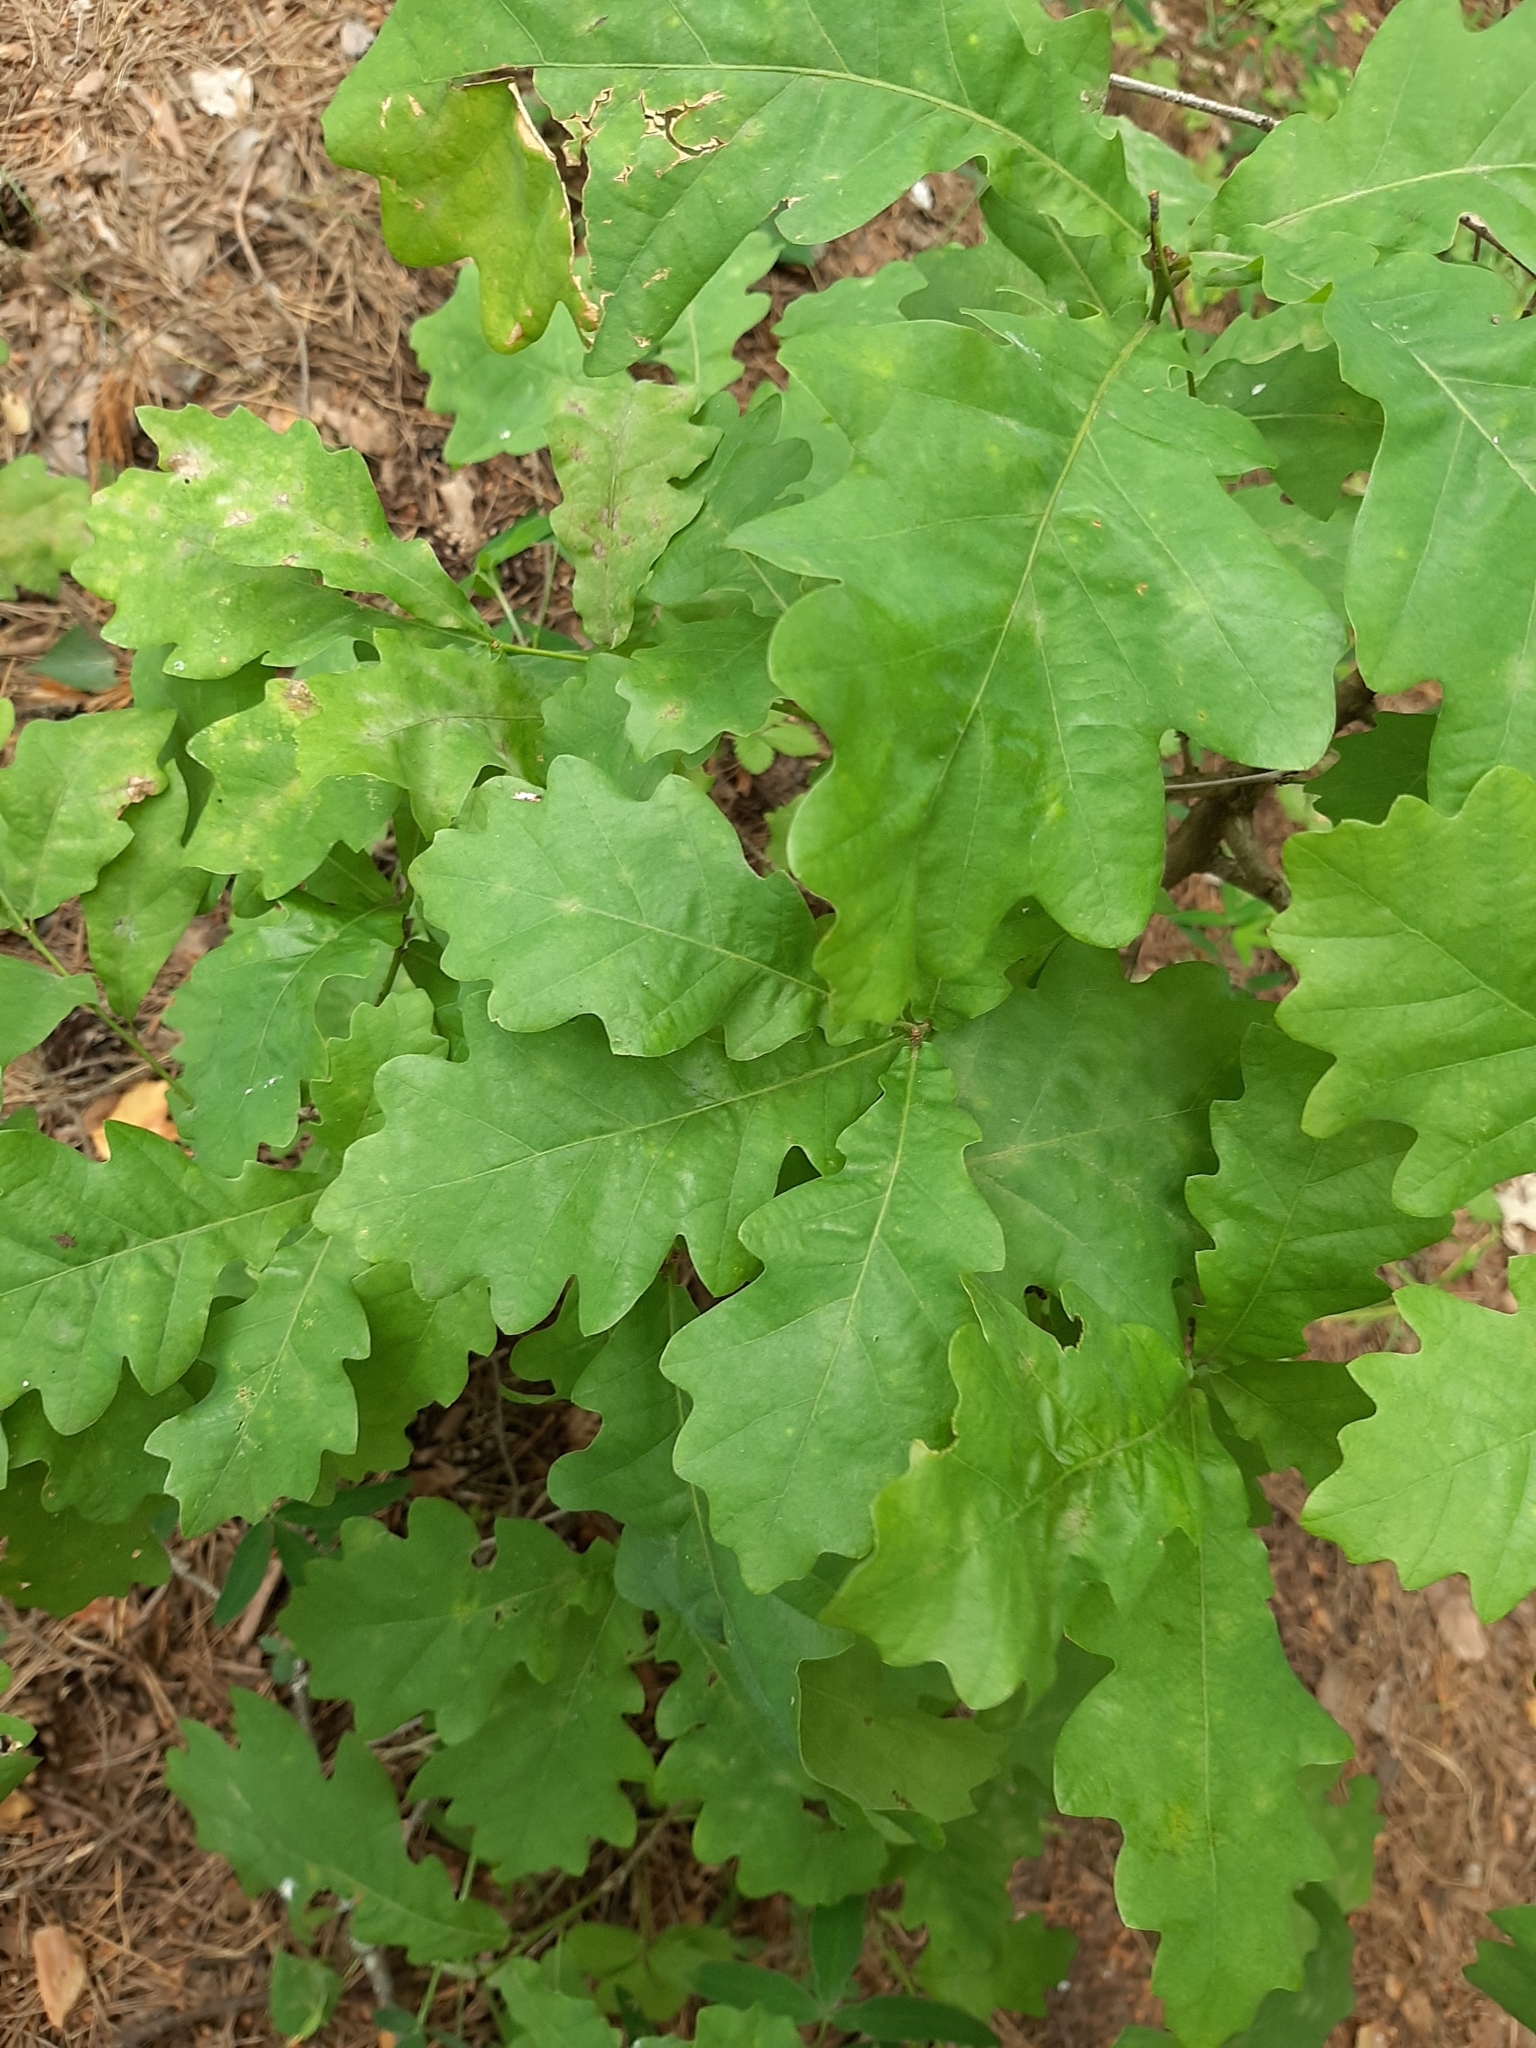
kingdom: Plantae
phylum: Tracheophyta
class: Magnoliopsida
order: Fagales
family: Fagaceae
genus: Quercus
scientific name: Quercus robur
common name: Pedunculate oak
